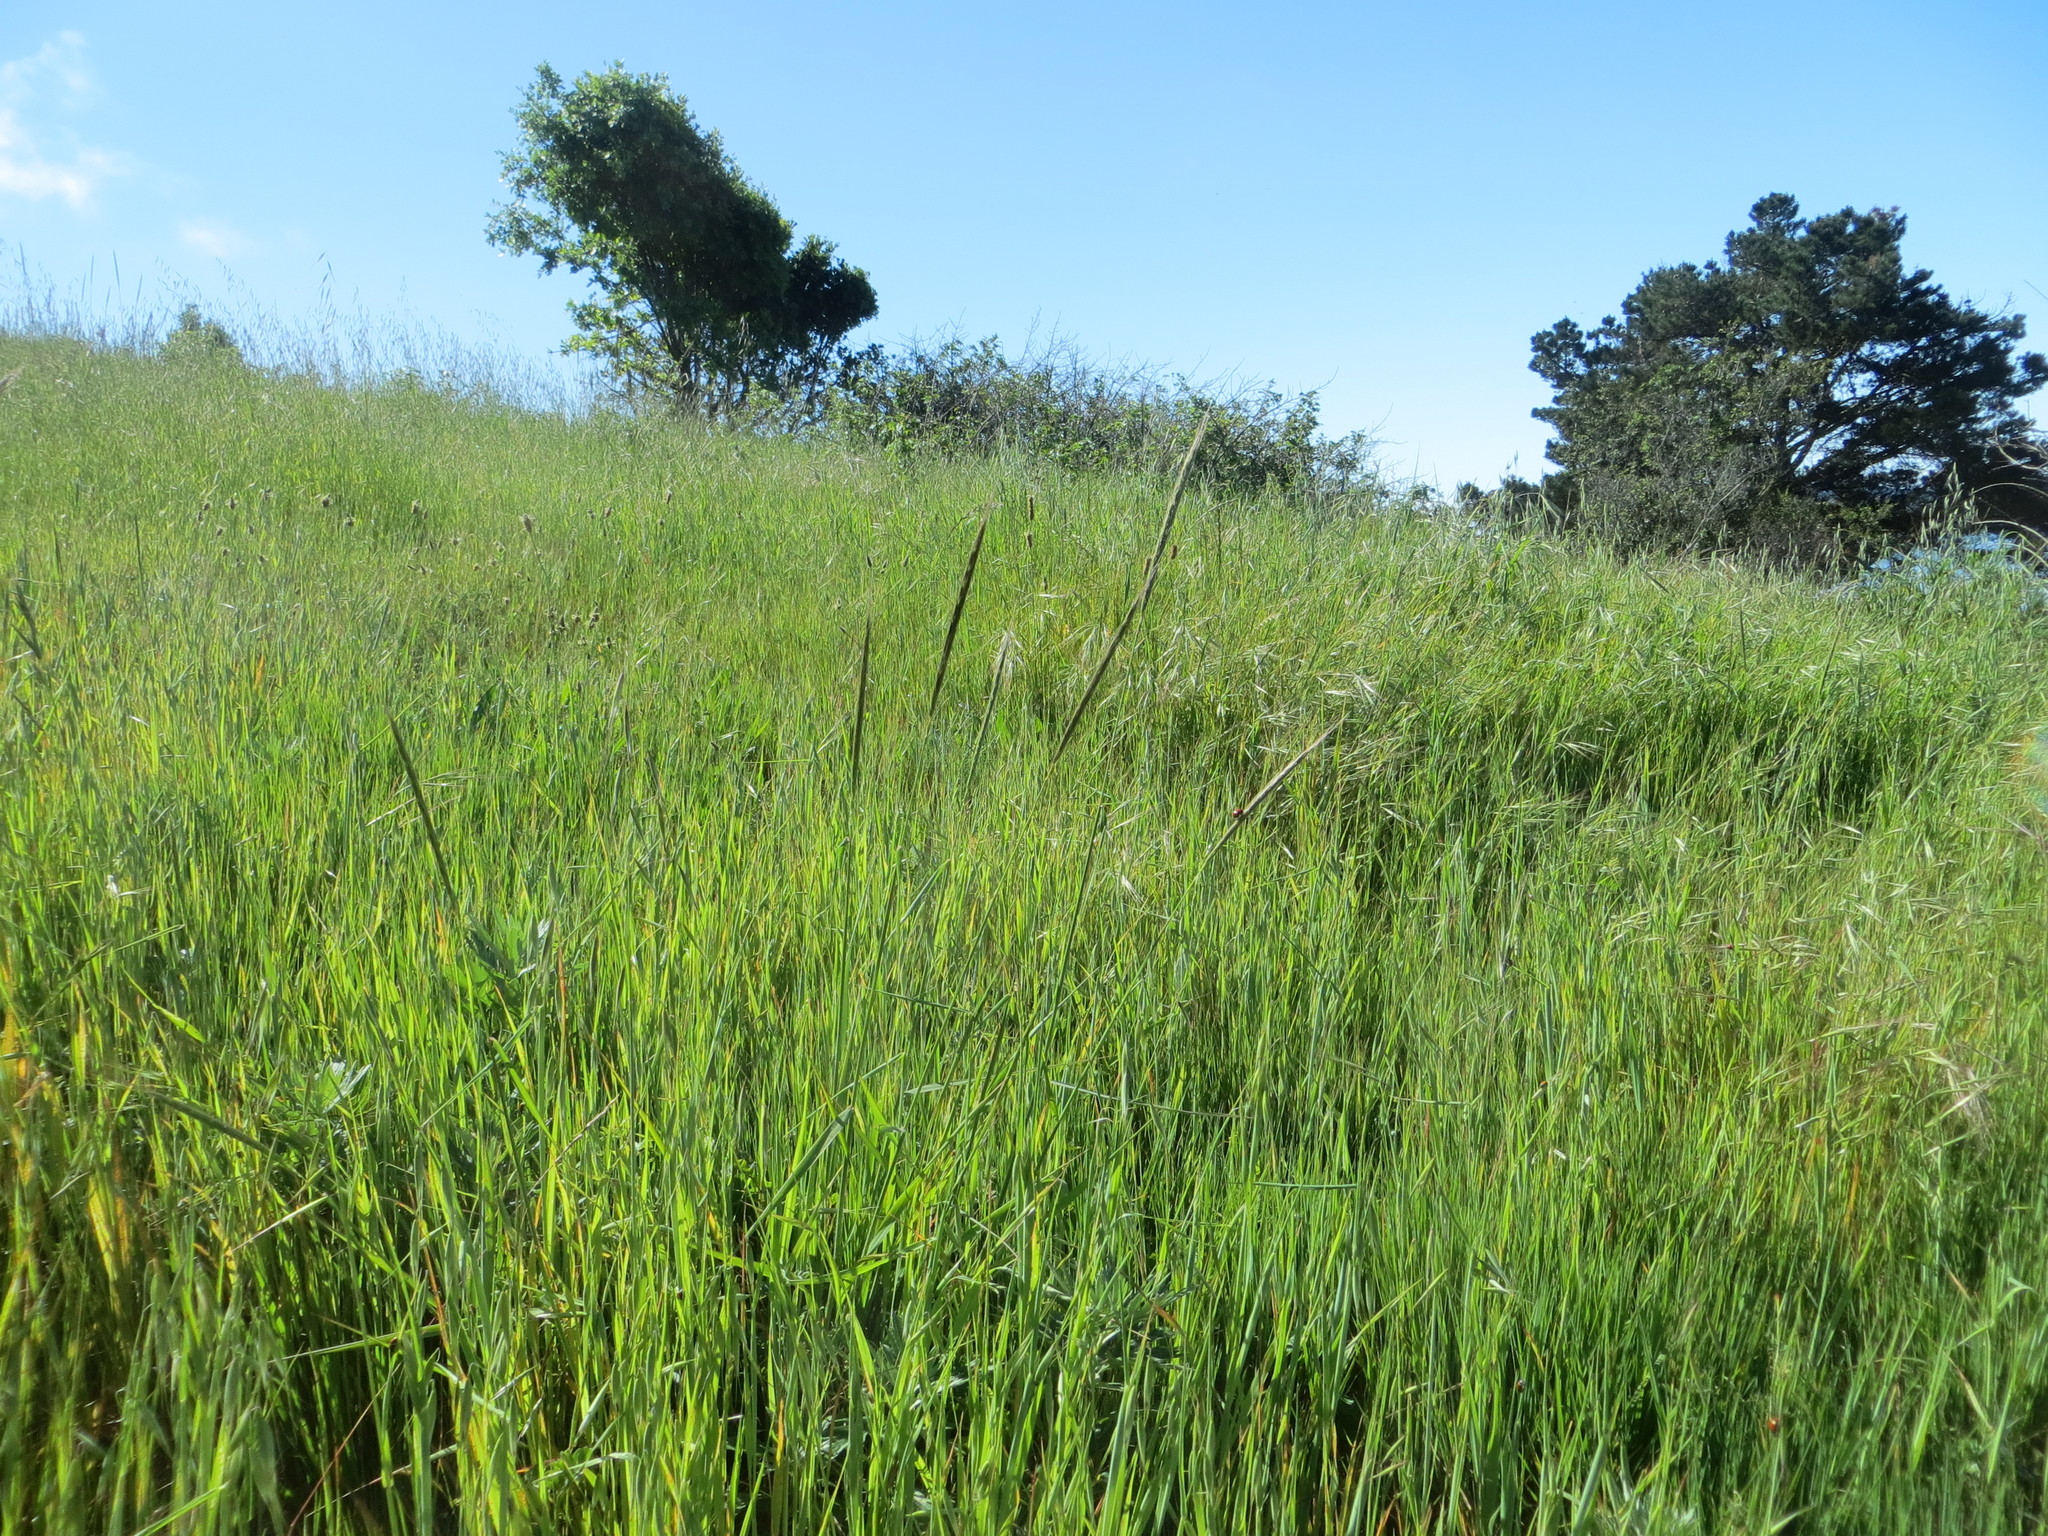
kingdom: Plantae
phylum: Tracheophyta
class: Liliopsida
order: Poales
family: Poaceae
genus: Hordeum
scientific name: Hordeum brachyantherum
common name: Meadow barley
